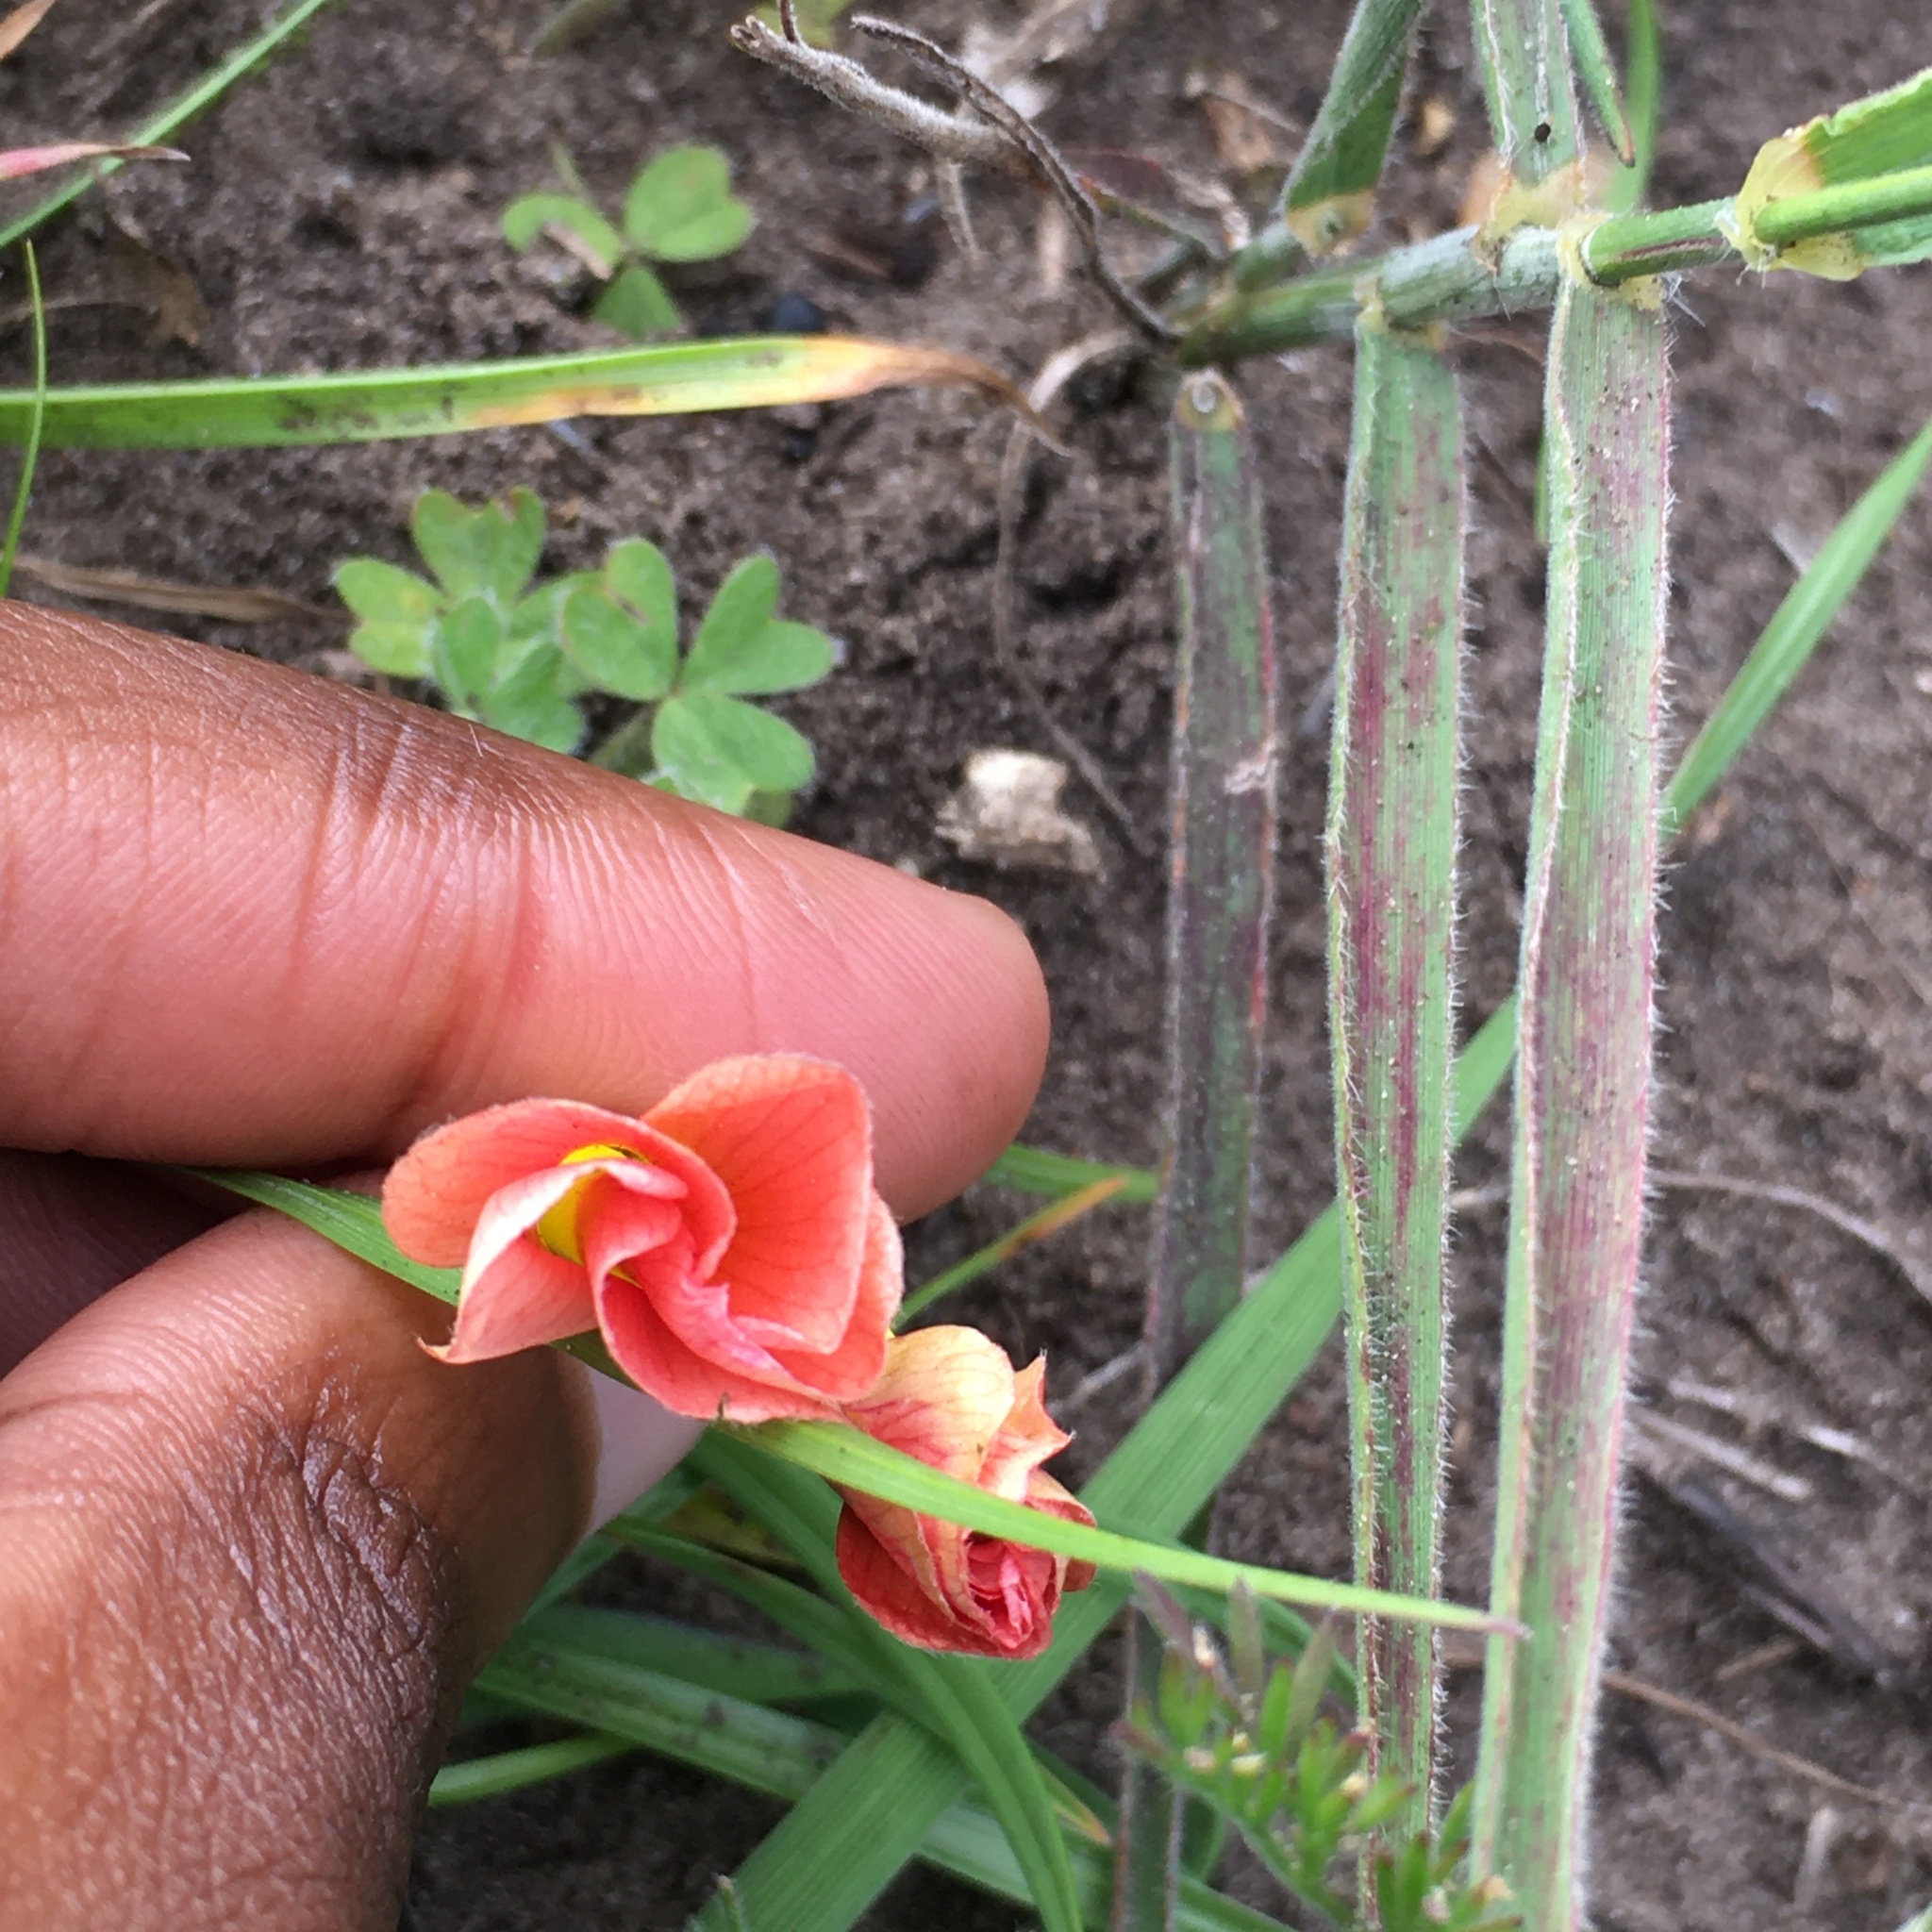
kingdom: Plantae
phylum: Tracheophyta
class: Magnoliopsida
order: Oxalidales
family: Oxalidaceae
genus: Oxalis
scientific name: Oxalis obtusa
